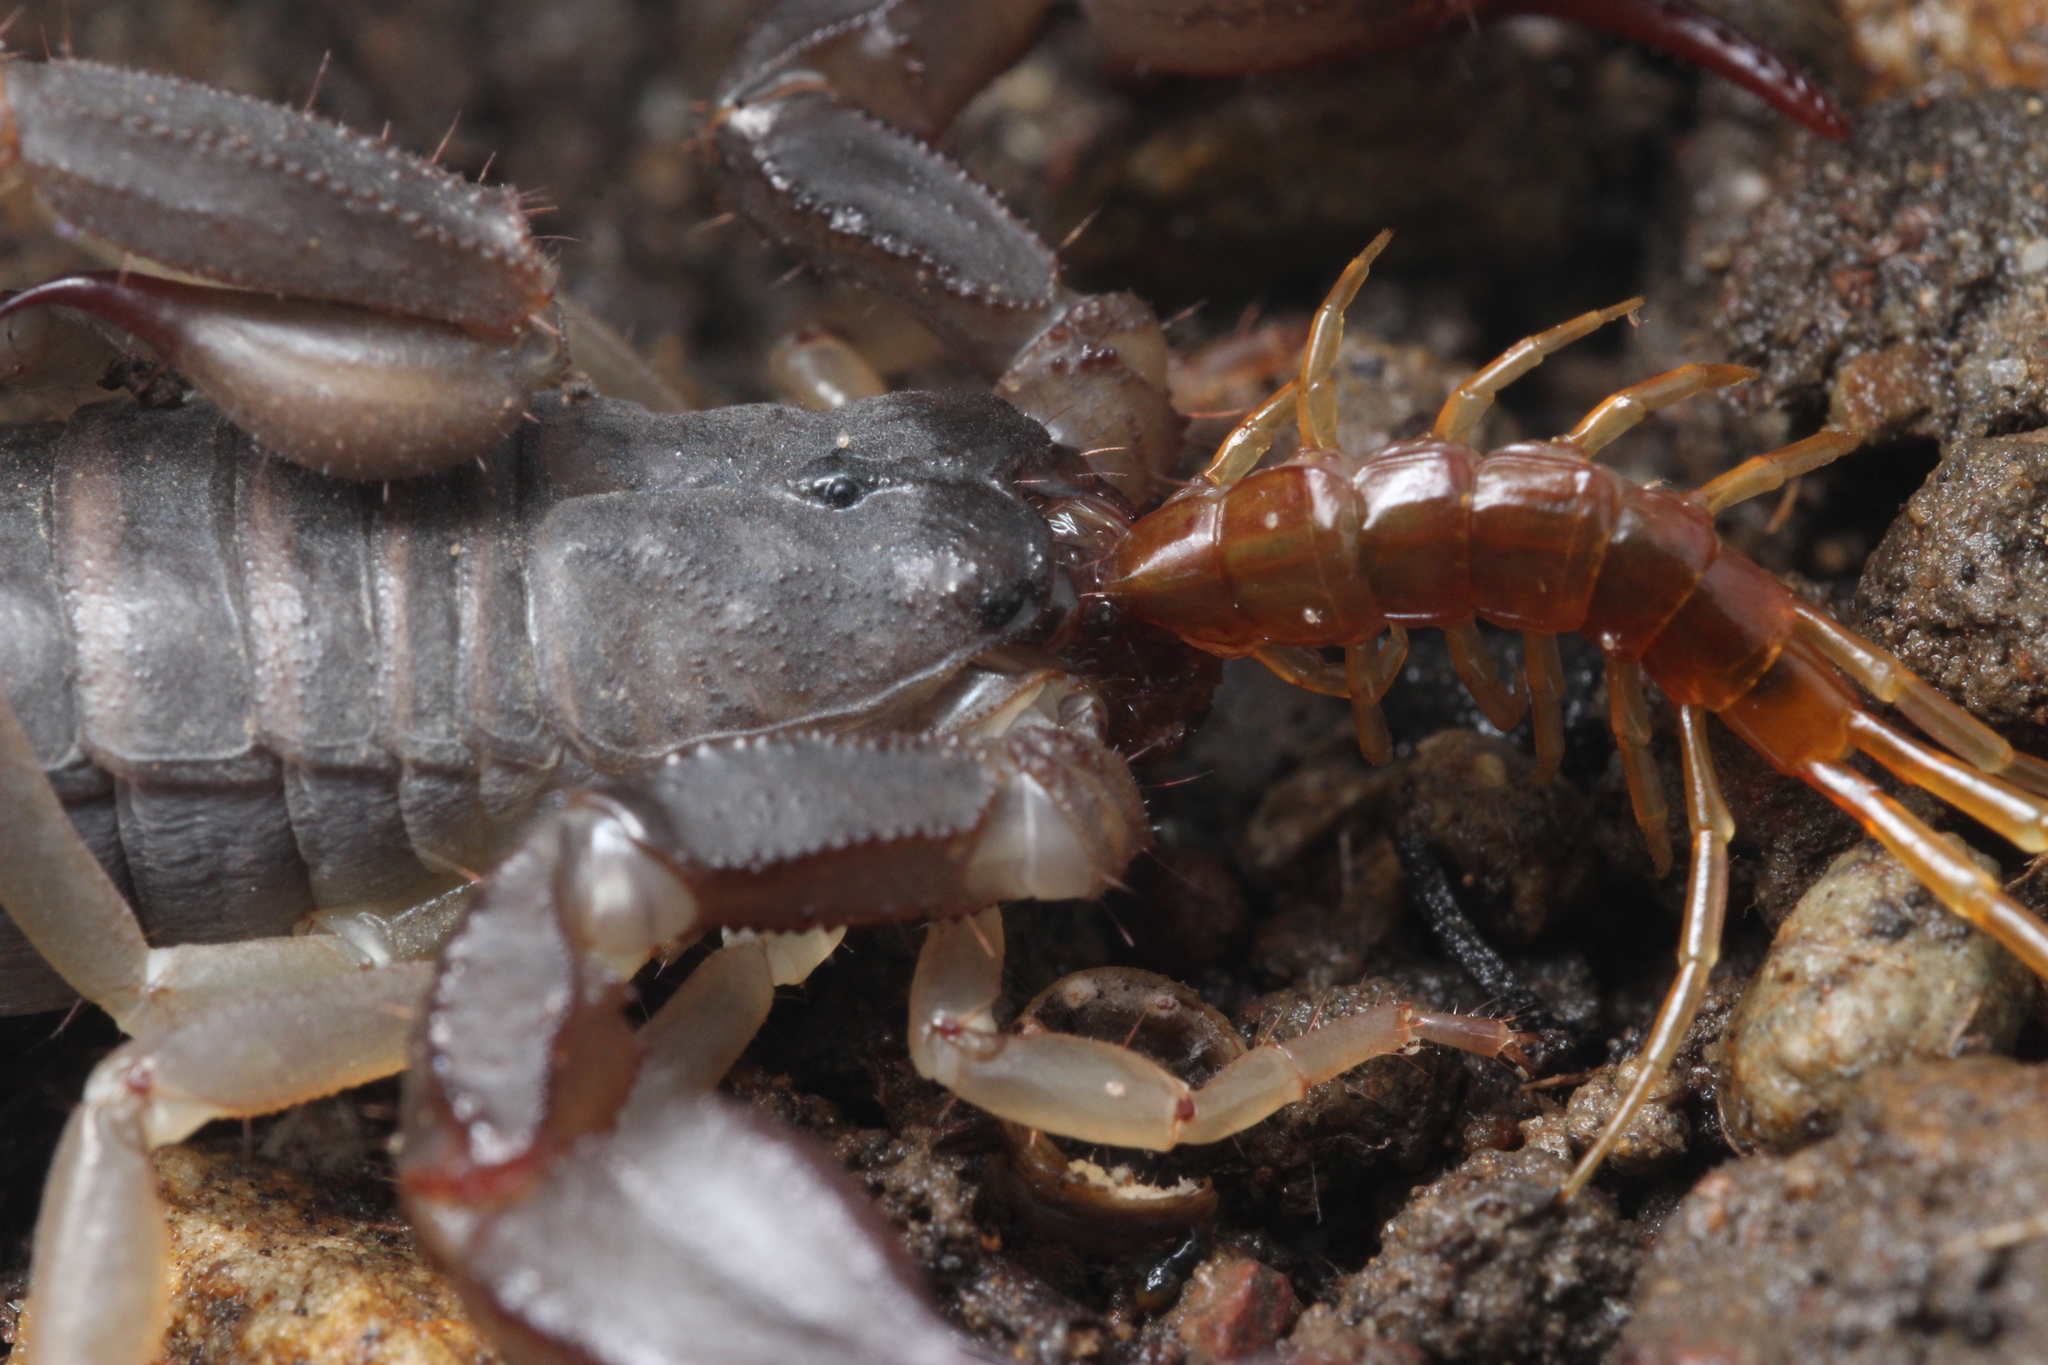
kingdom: Animalia
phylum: Arthropoda
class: Arachnida
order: Scorpiones
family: Chactidae
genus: Uroctonus
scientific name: Uroctonus mordax
